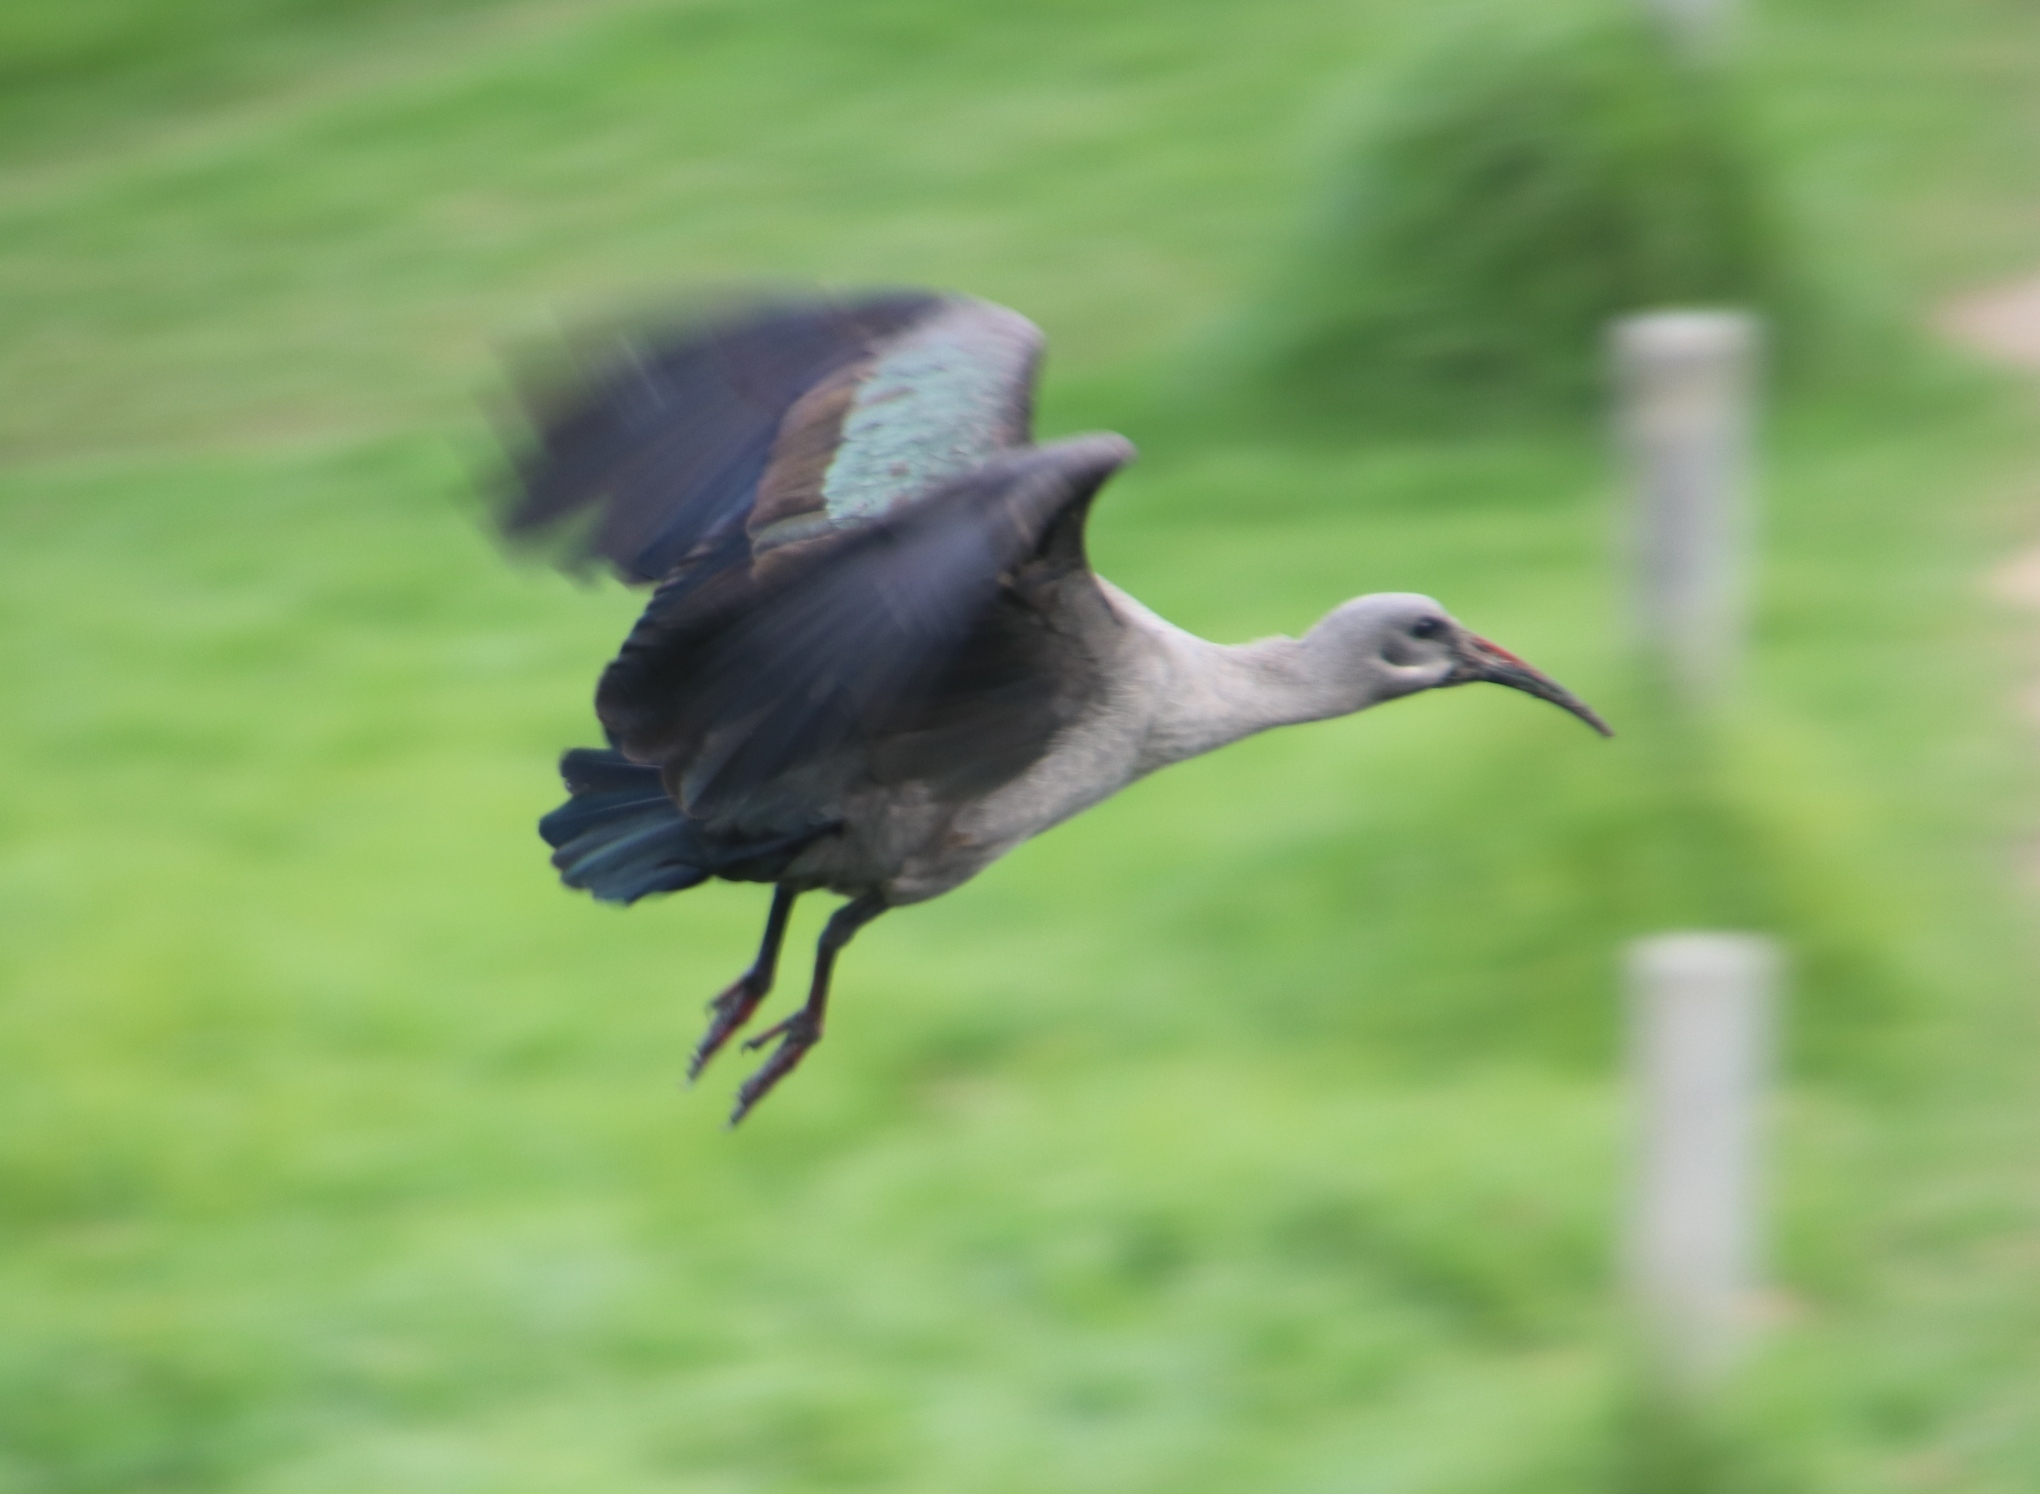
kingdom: Animalia
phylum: Chordata
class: Aves
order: Pelecaniformes
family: Threskiornithidae
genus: Bostrychia
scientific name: Bostrychia hagedash
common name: Hadada ibis
